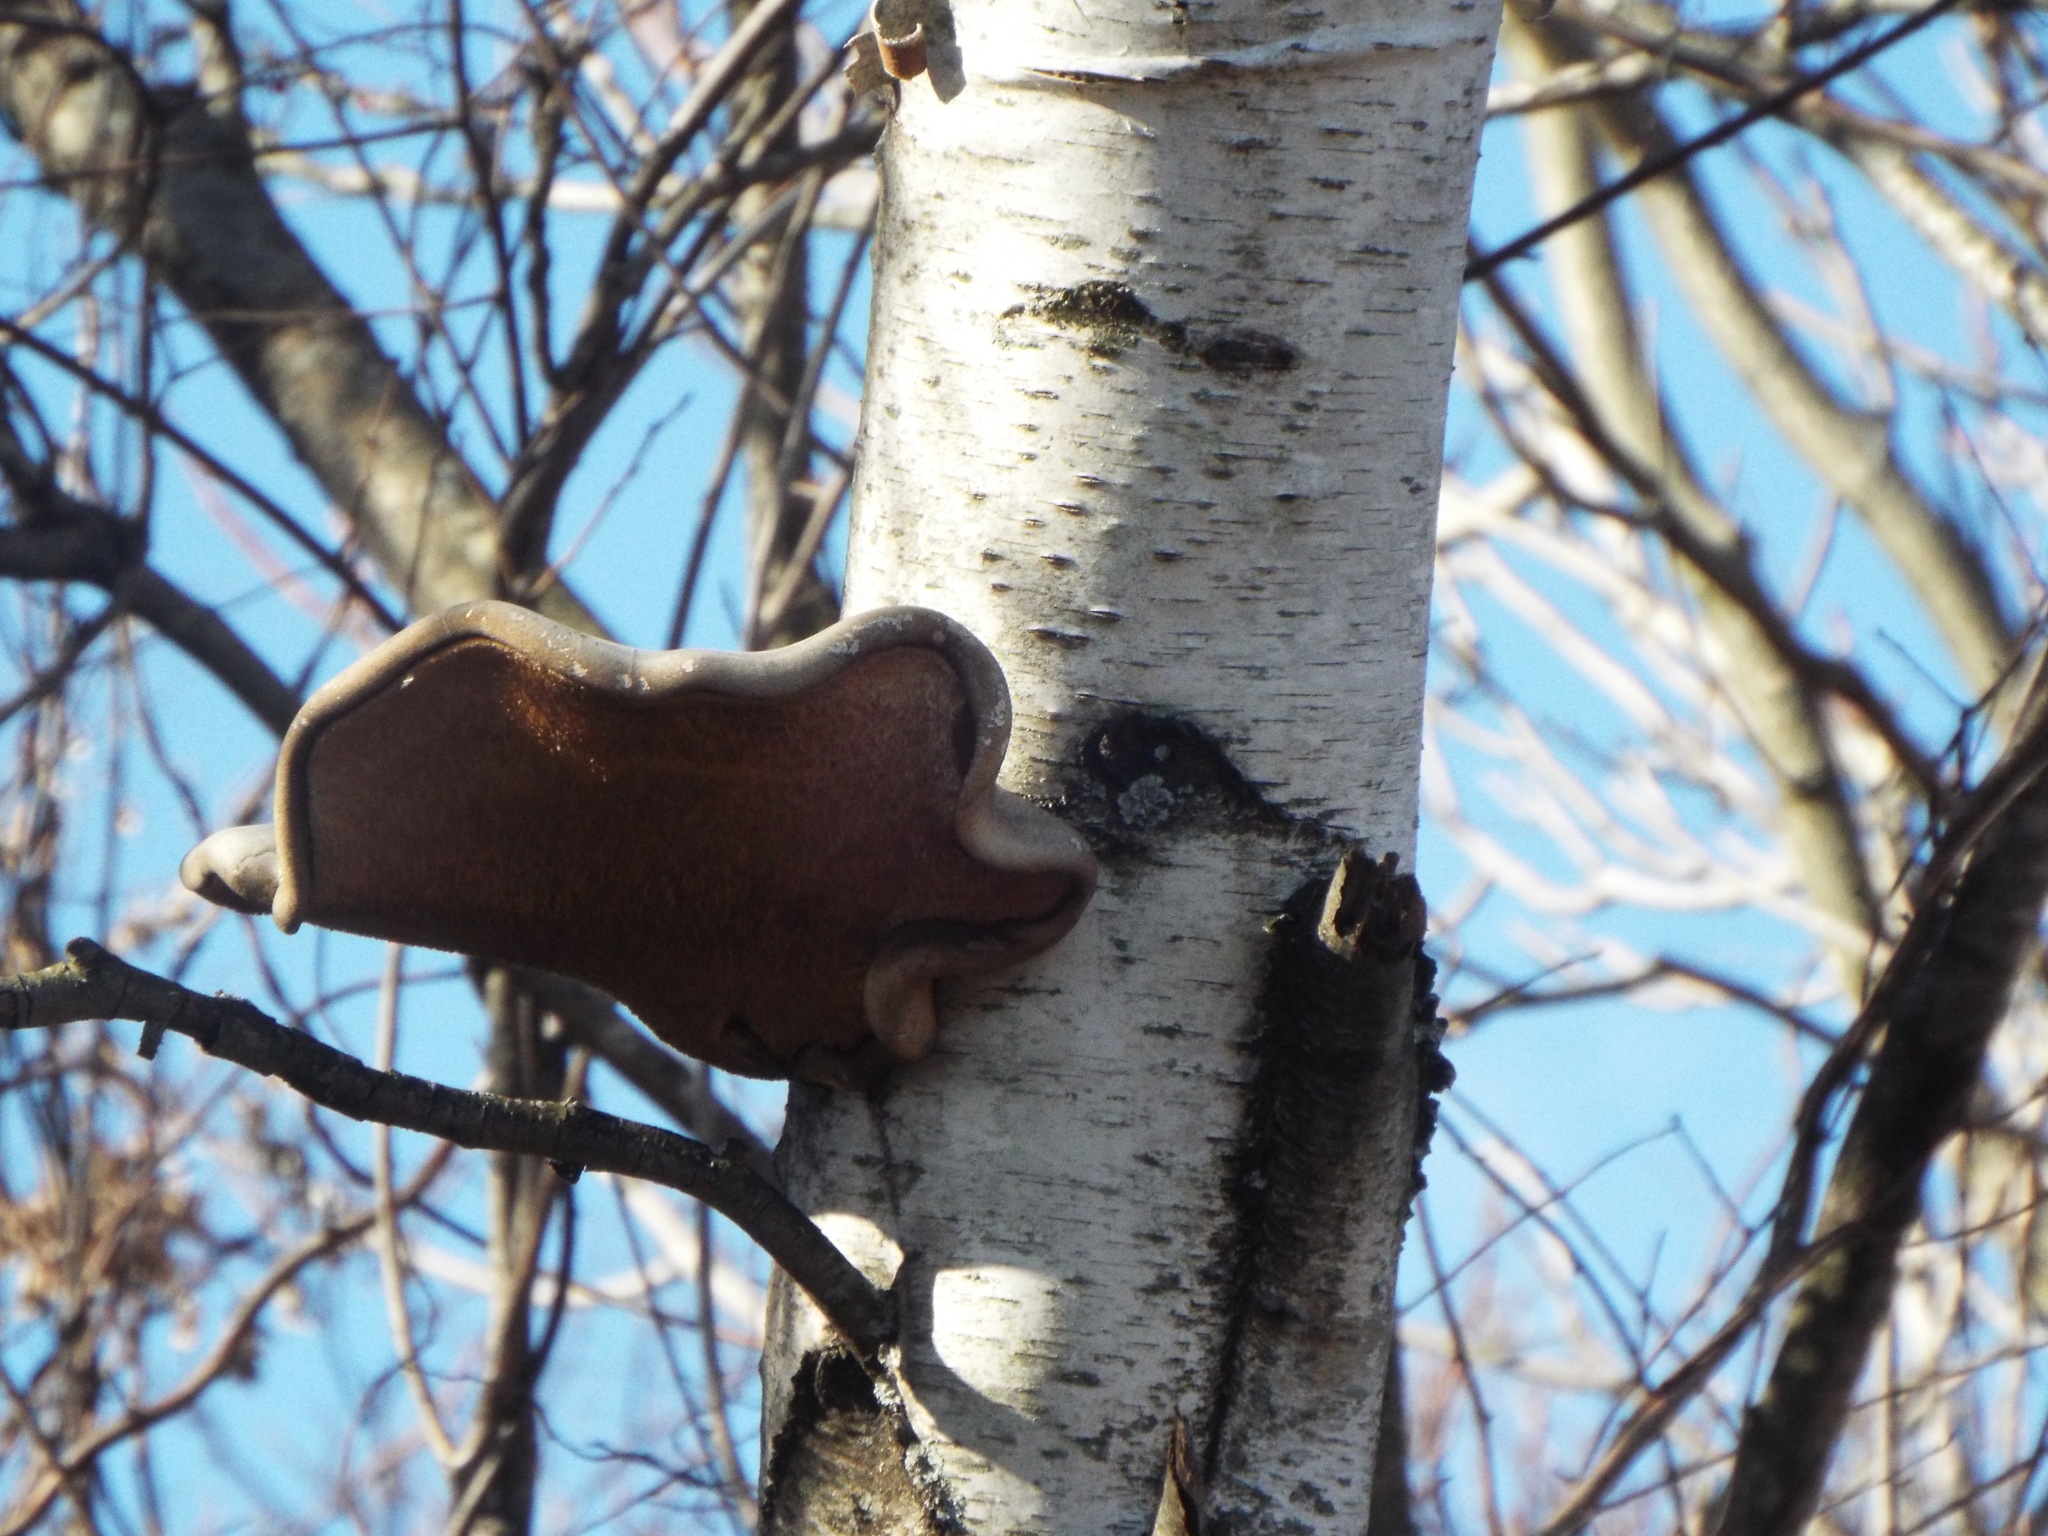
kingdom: Fungi
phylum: Basidiomycota
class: Agaricomycetes
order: Polyporales
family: Fomitopsidaceae
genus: Fomitopsis
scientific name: Fomitopsis betulina
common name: Birch polypore
